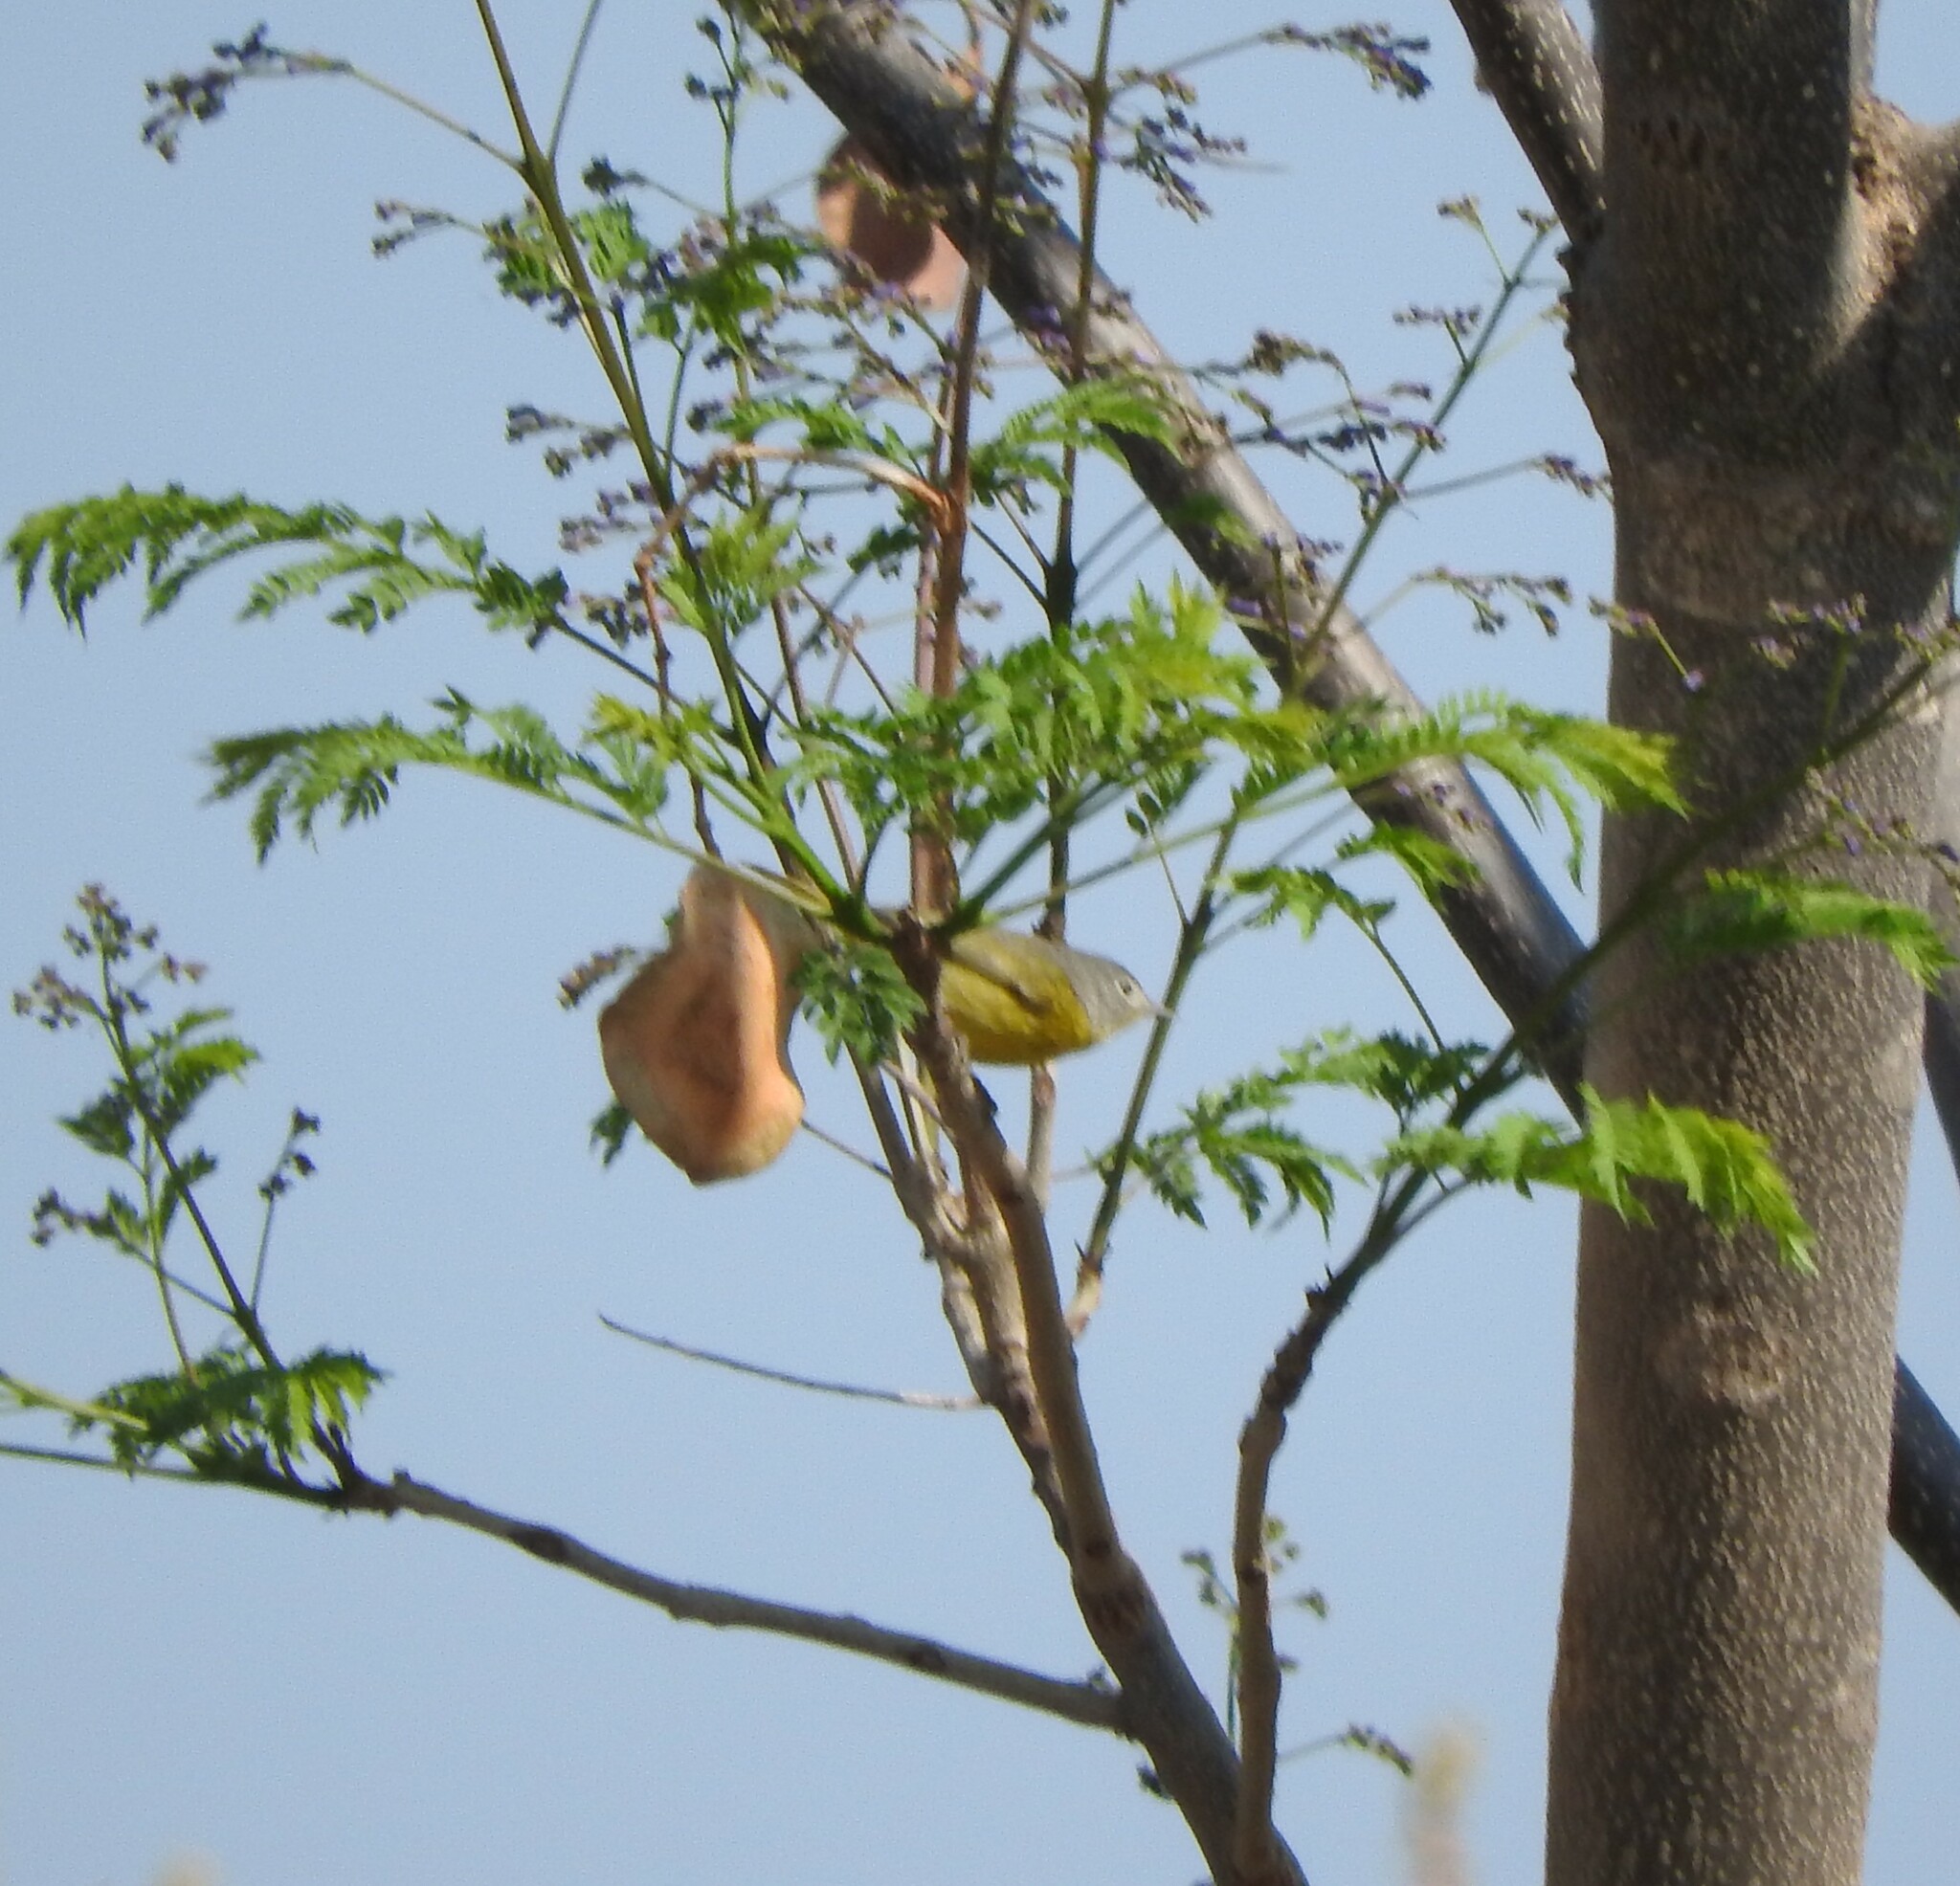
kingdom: Animalia
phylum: Chordata
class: Aves
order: Passeriformes
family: Parulidae
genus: Leiothlypis
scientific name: Leiothlypis ruficapilla
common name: Nashville warbler
